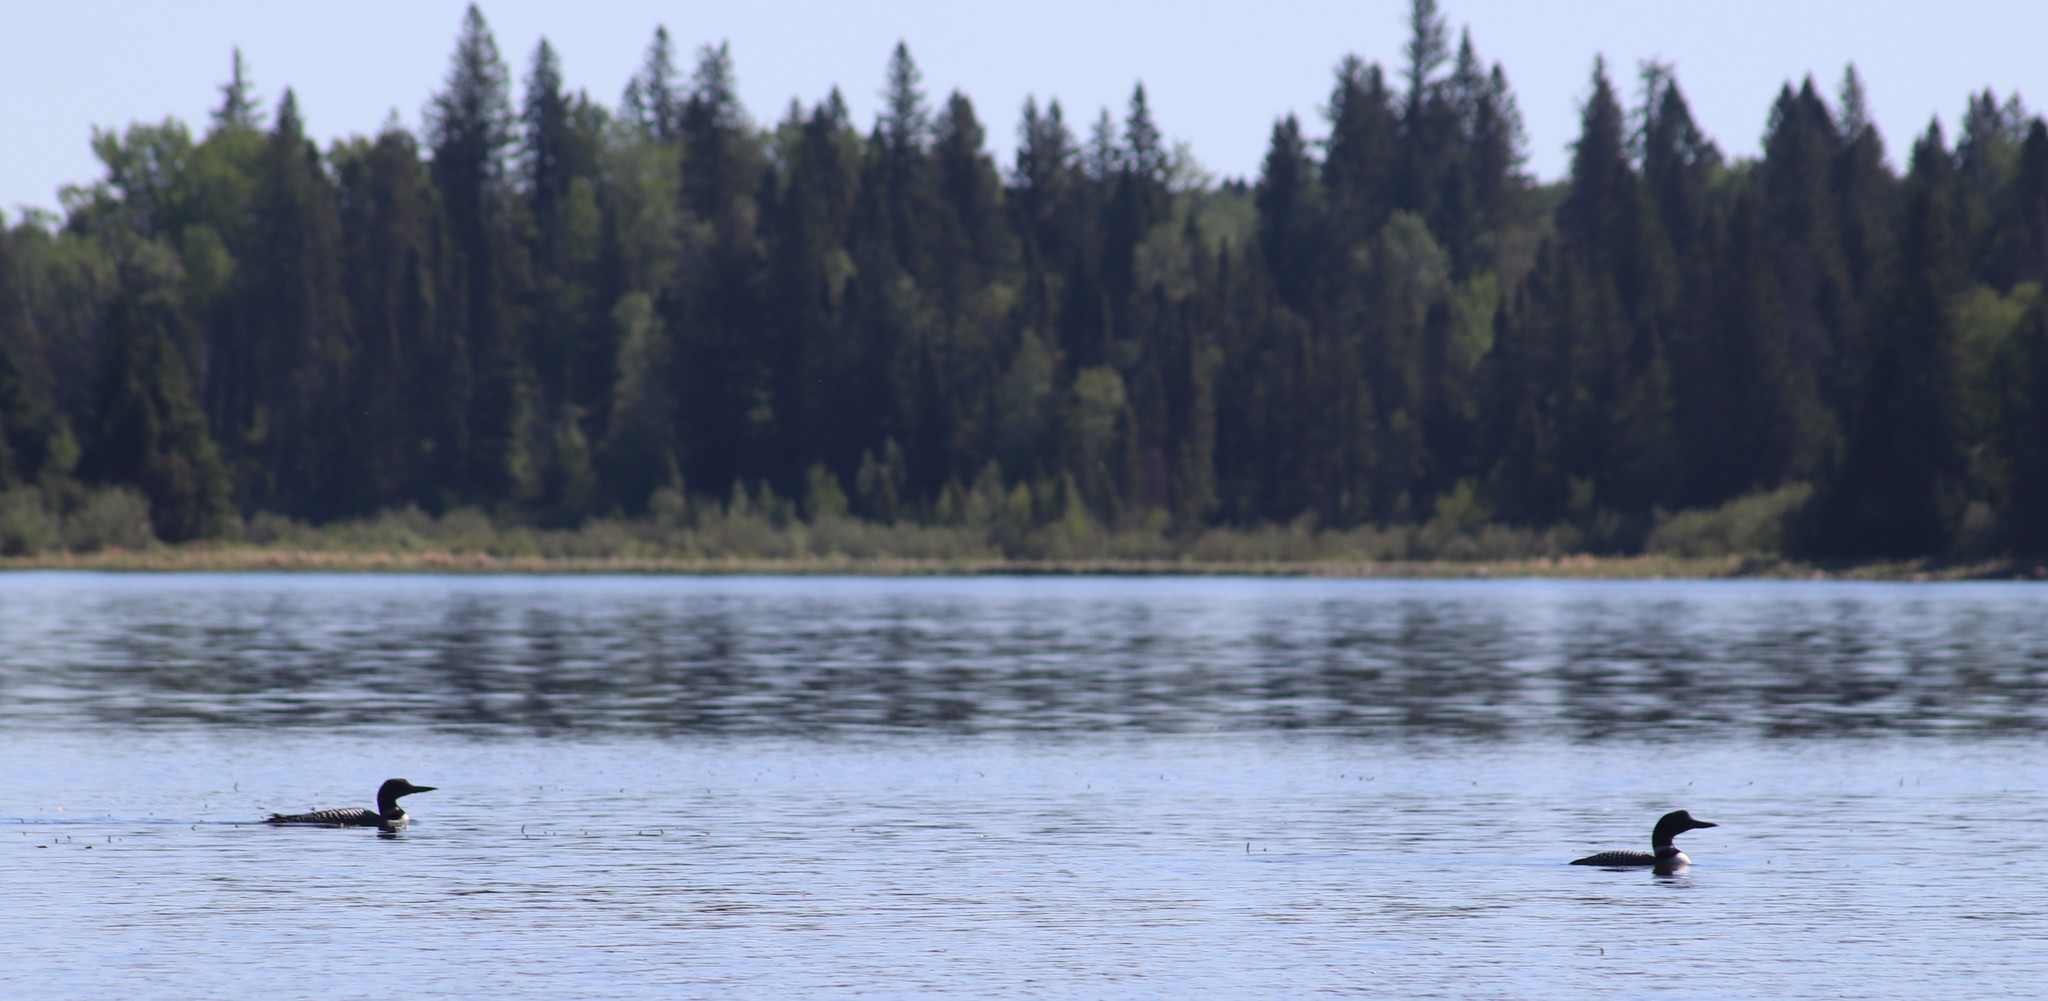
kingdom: Animalia
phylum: Chordata
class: Aves
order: Gaviiformes
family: Gaviidae
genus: Gavia
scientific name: Gavia immer
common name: Common loon
